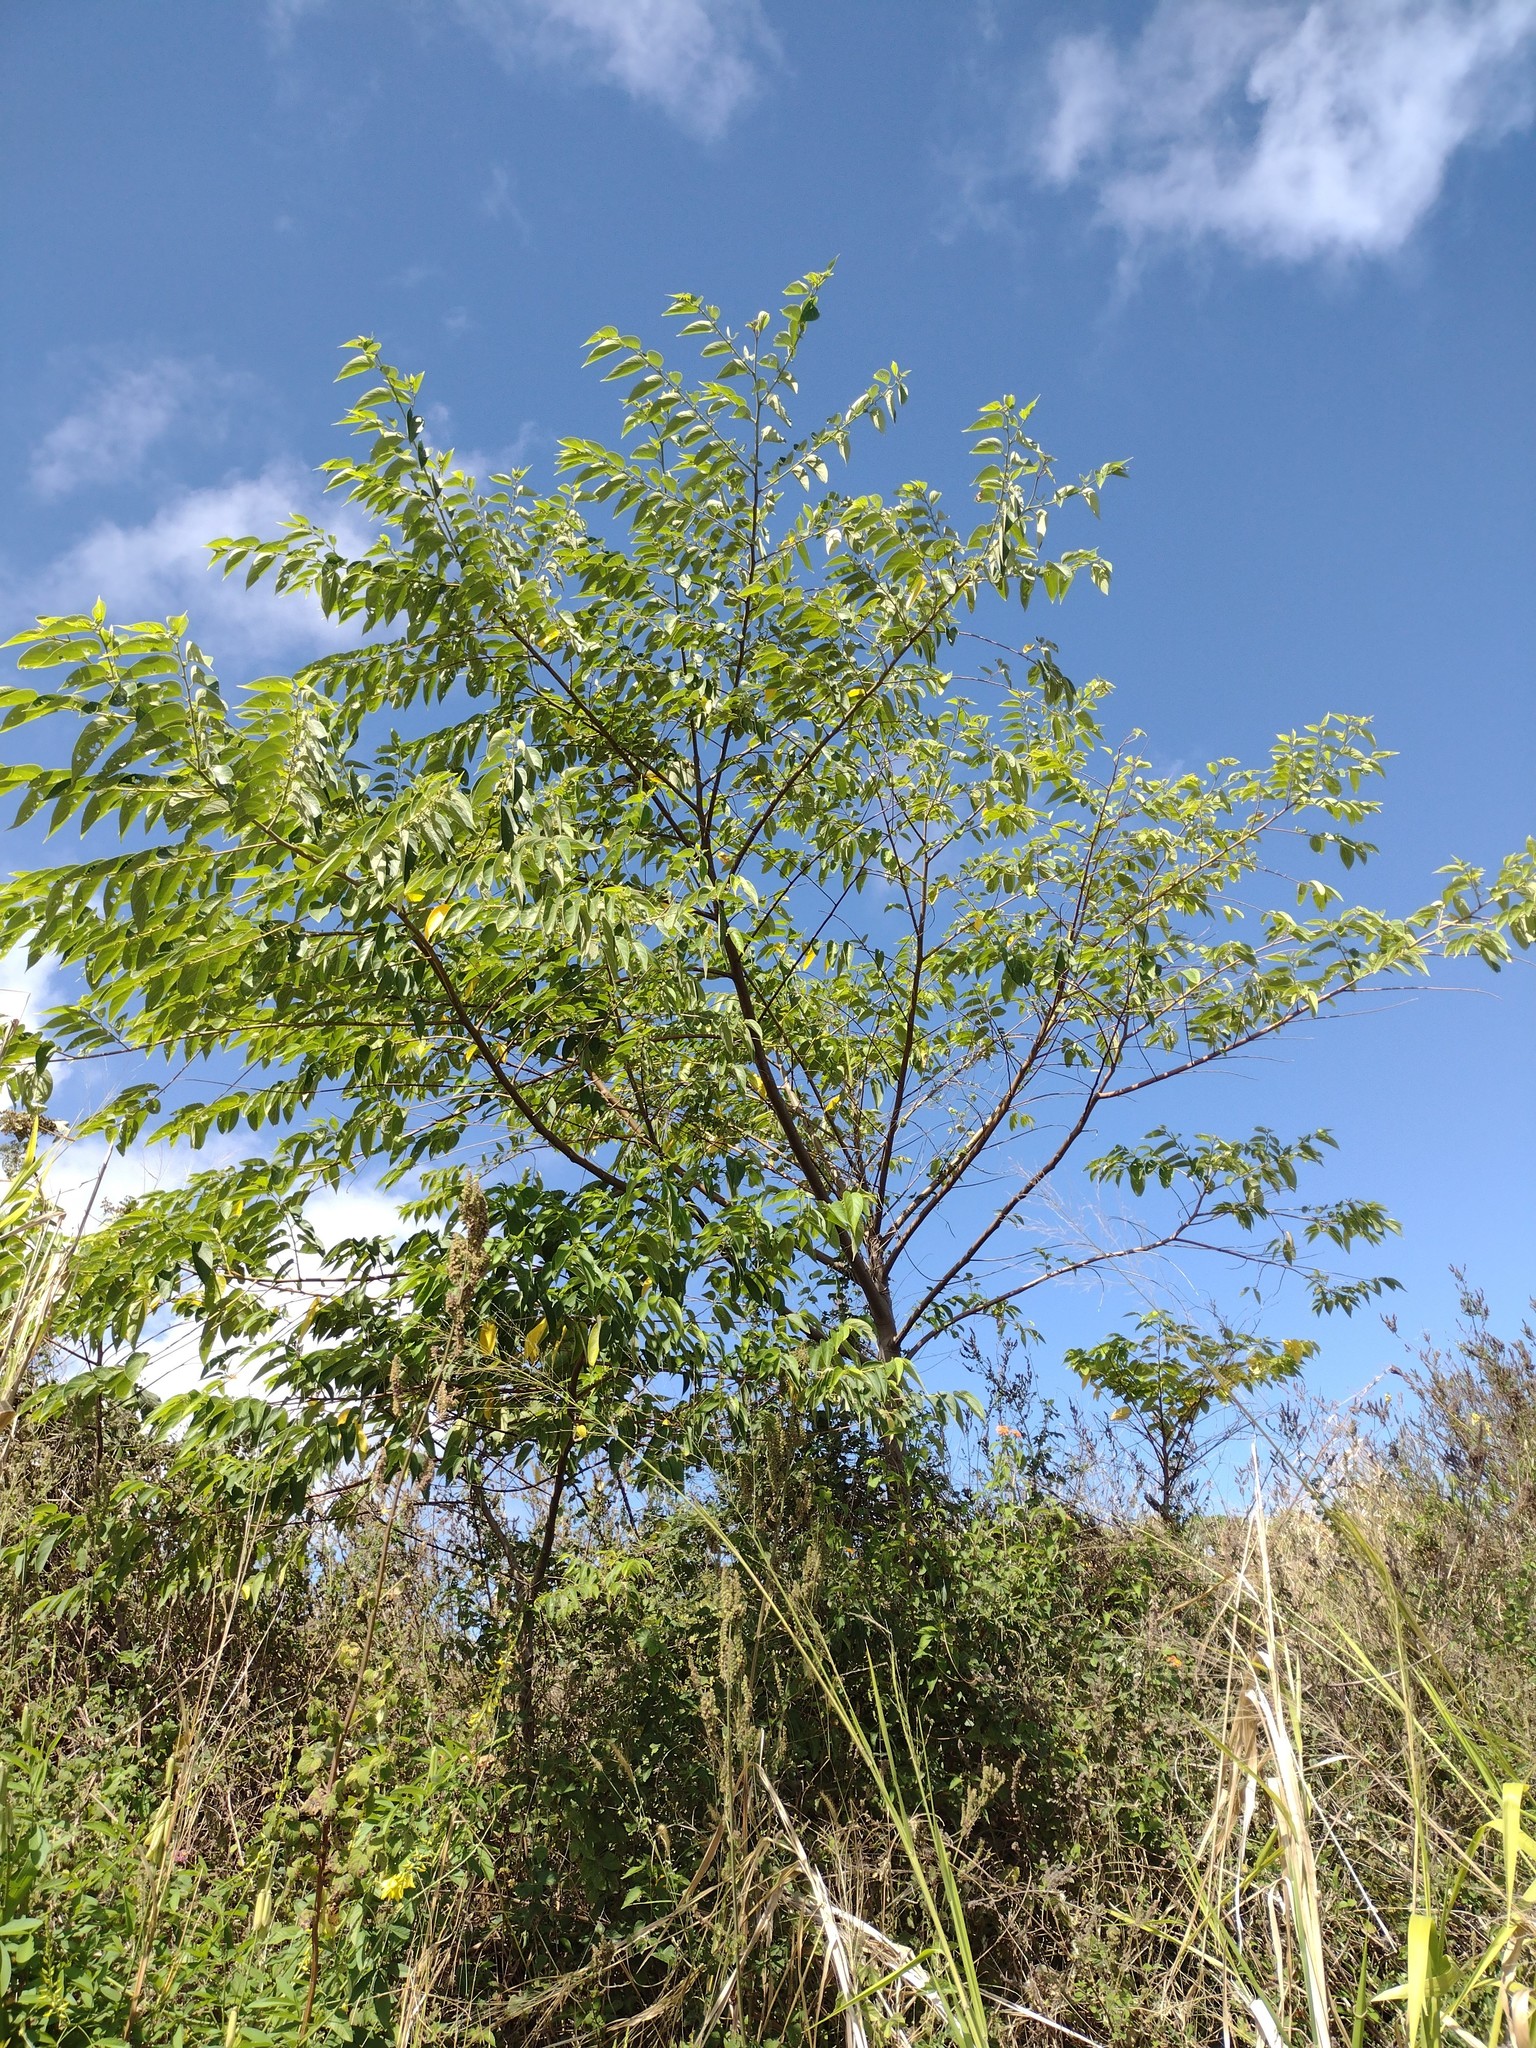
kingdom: Plantae
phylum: Tracheophyta
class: Magnoliopsida
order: Rosales
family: Cannabaceae
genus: Trema
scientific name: Trema orientale
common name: Indian charcoal tree
